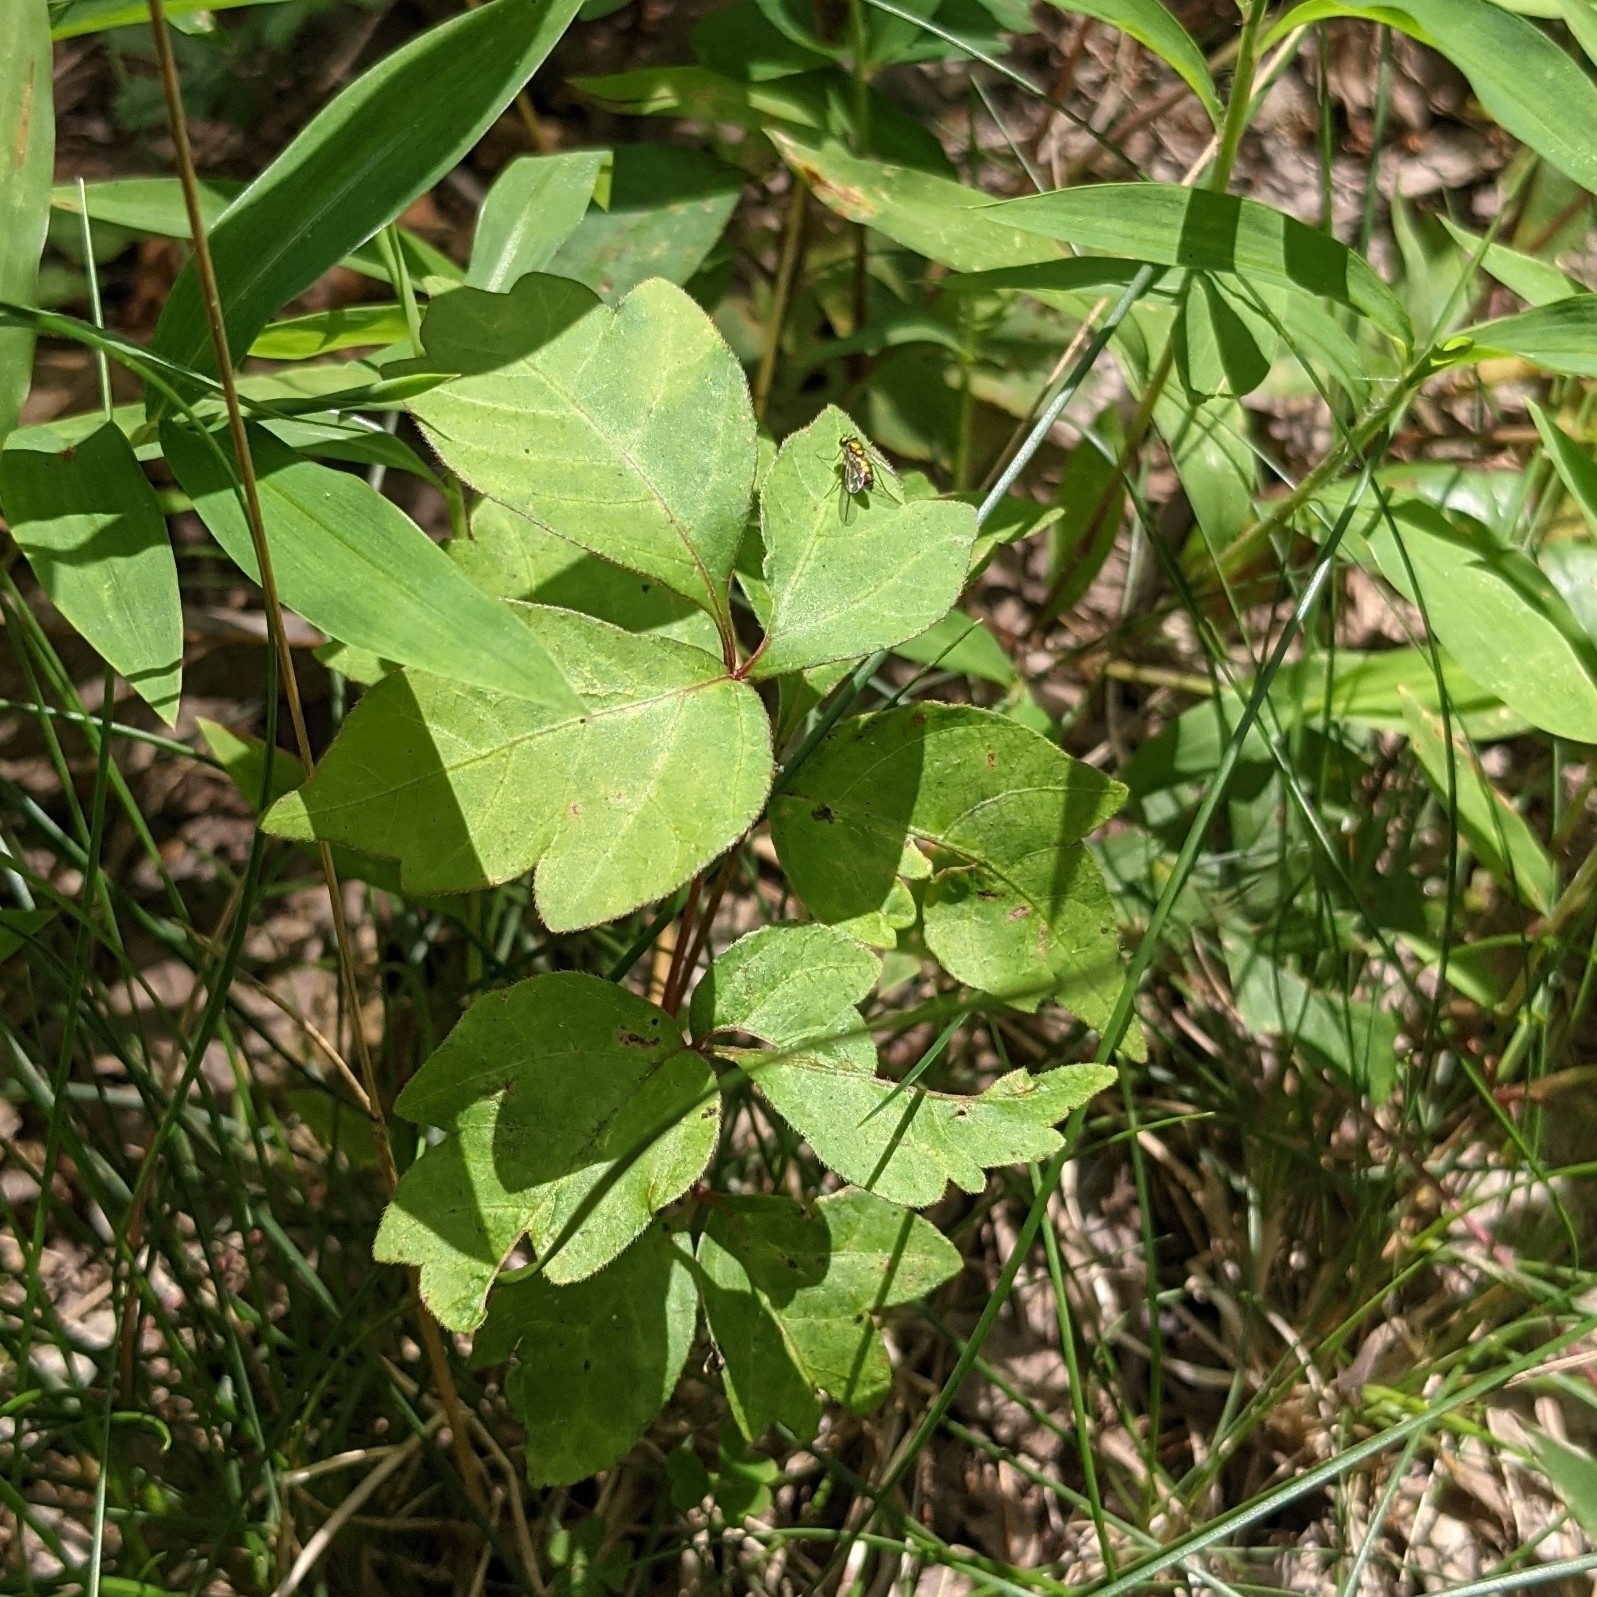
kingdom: Plantae
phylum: Tracheophyta
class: Magnoliopsida
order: Sapindales
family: Anacardiaceae
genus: Toxicodendron
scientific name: Toxicodendron radicans
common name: Poison ivy
